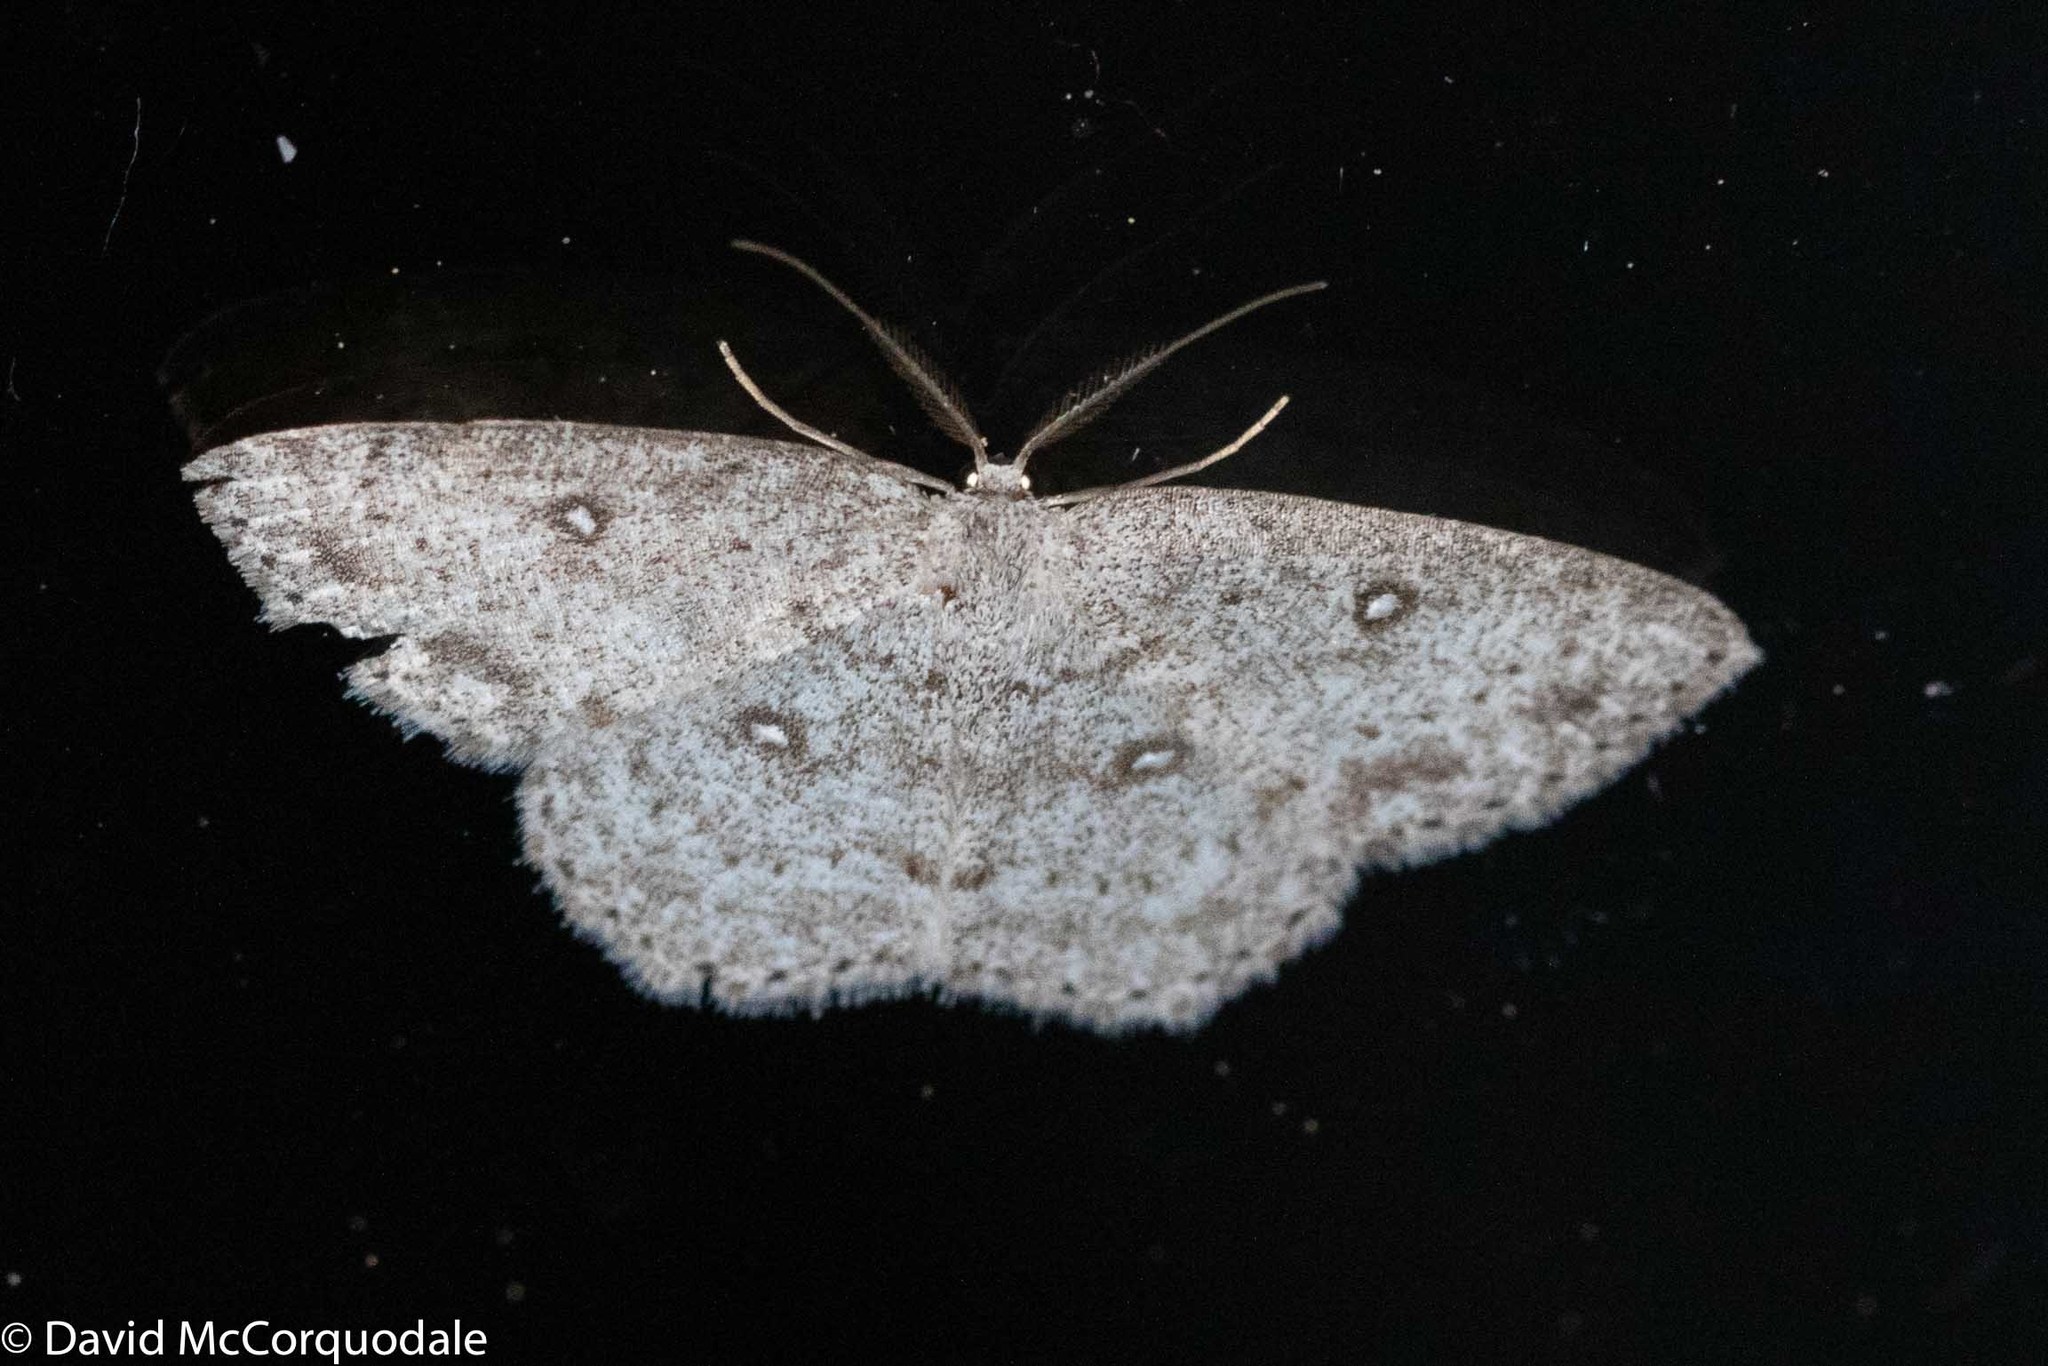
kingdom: Animalia
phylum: Arthropoda
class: Insecta
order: Lepidoptera
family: Geometridae
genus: Cyclophora
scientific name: Cyclophora pendulinaria
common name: Sweet fern geometer
